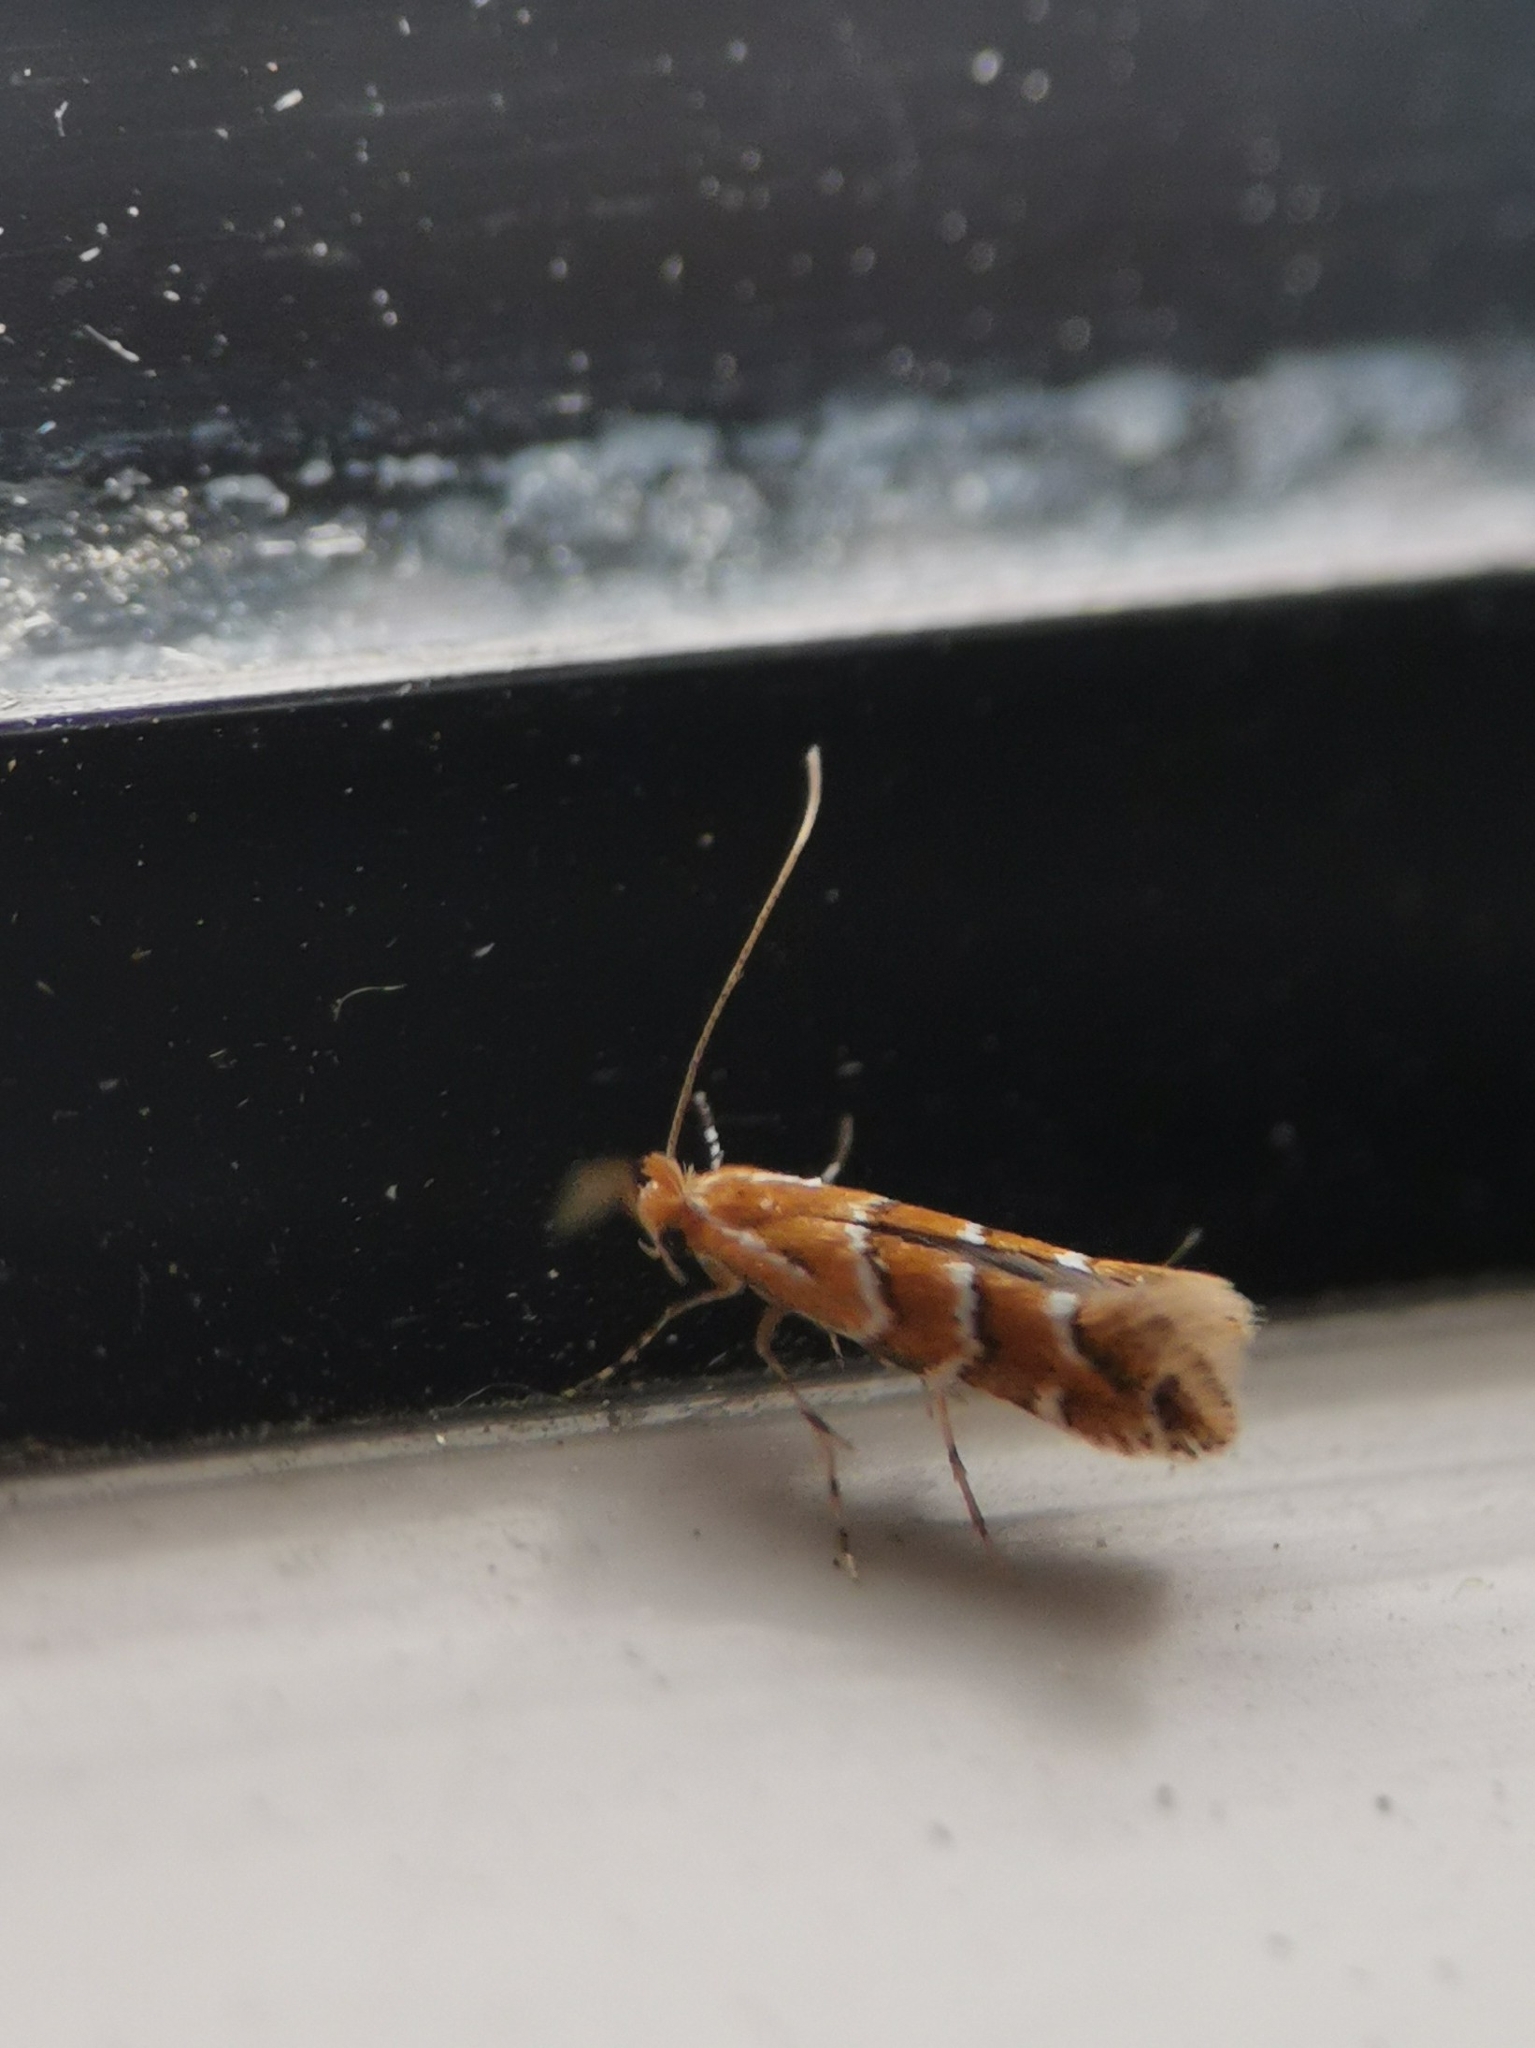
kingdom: Animalia
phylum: Arthropoda
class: Insecta
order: Lepidoptera
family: Gracillariidae
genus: Cameraria
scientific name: Cameraria ohridella
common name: Horse-chestnut leaf-miner
